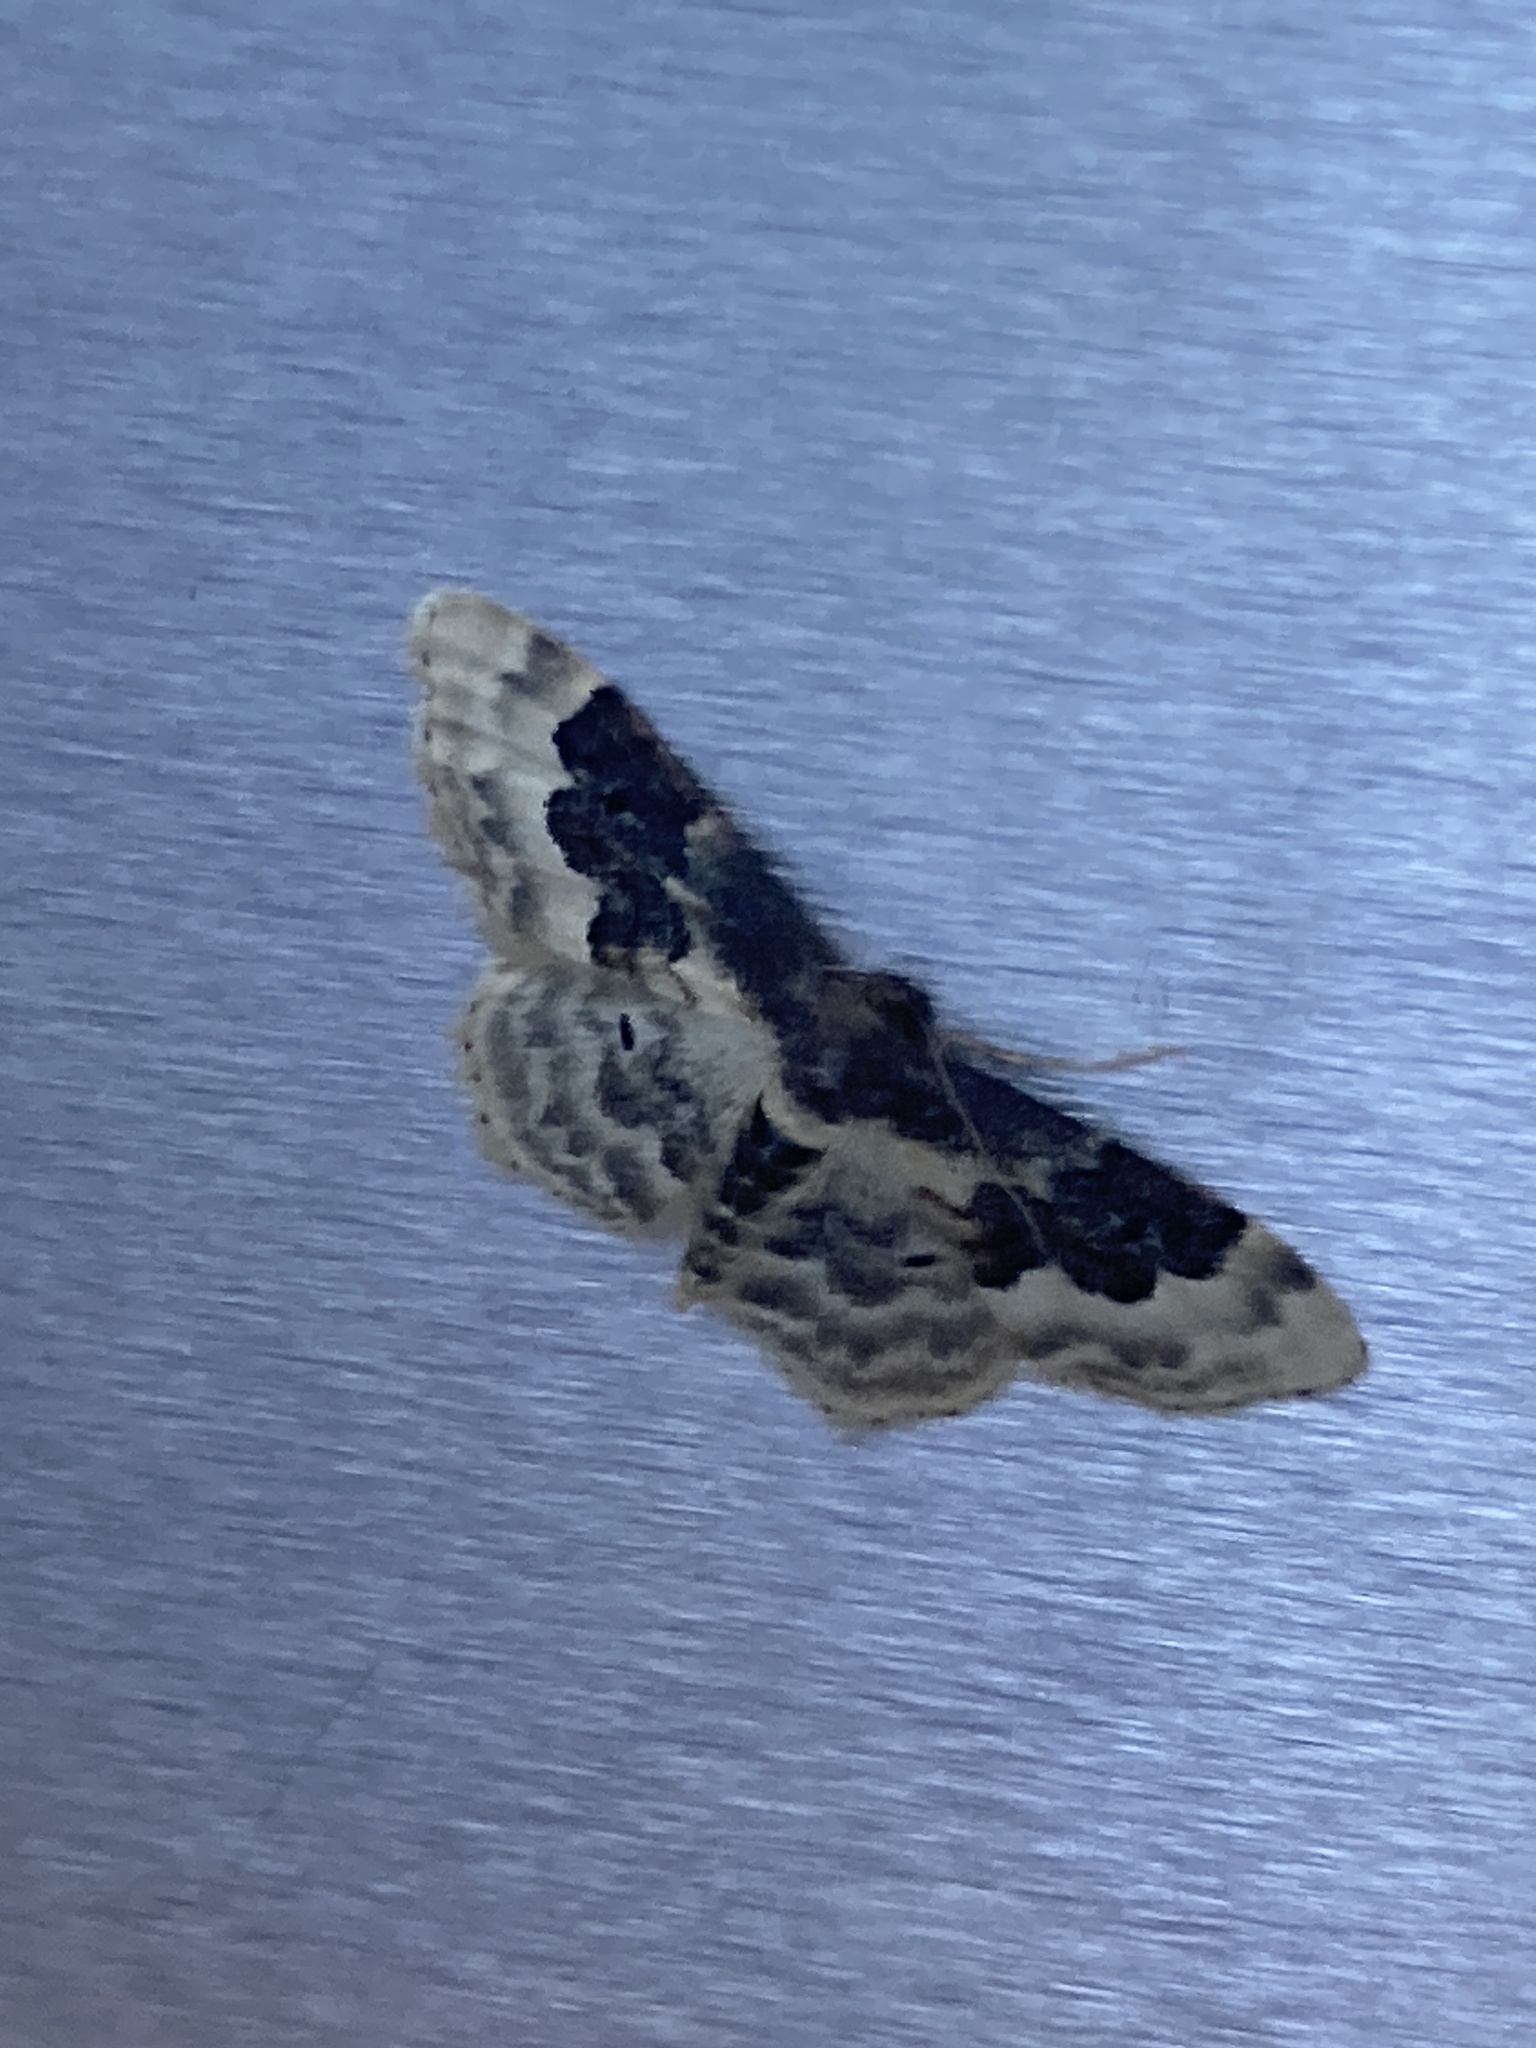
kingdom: Animalia
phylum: Arthropoda
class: Insecta
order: Lepidoptera
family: Geometridae
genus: Idaea
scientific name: Idaea rusticata
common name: Least carpet
